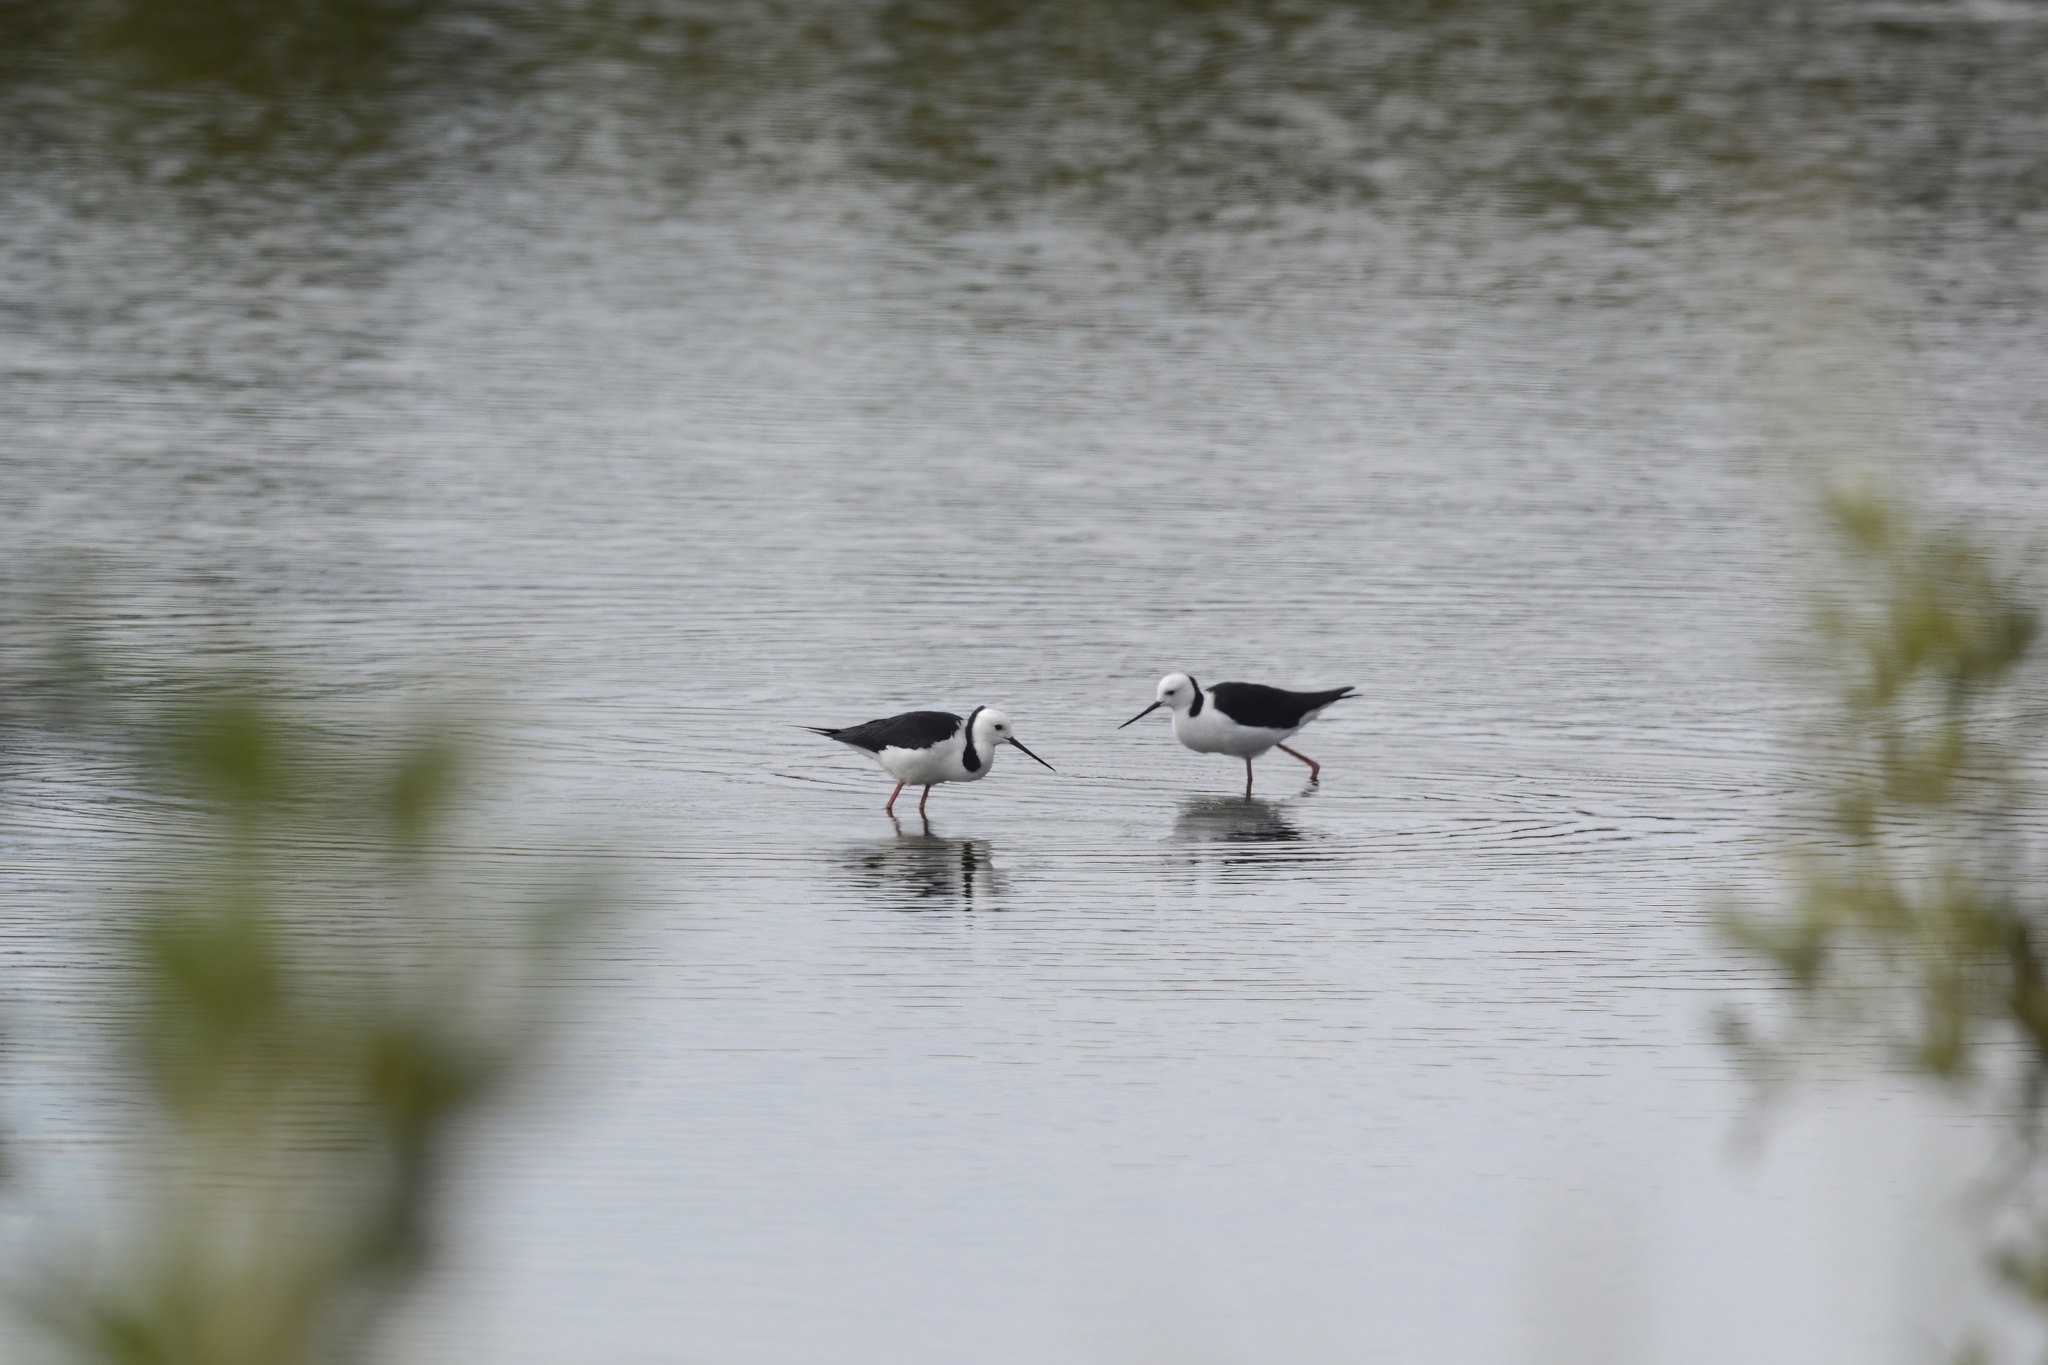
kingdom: Animalia
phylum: Chordata
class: Aves
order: Charadriiformes
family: Recurvirostridae
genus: Himantopus
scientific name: Himantopus leucocephalus
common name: White-headed stilt
